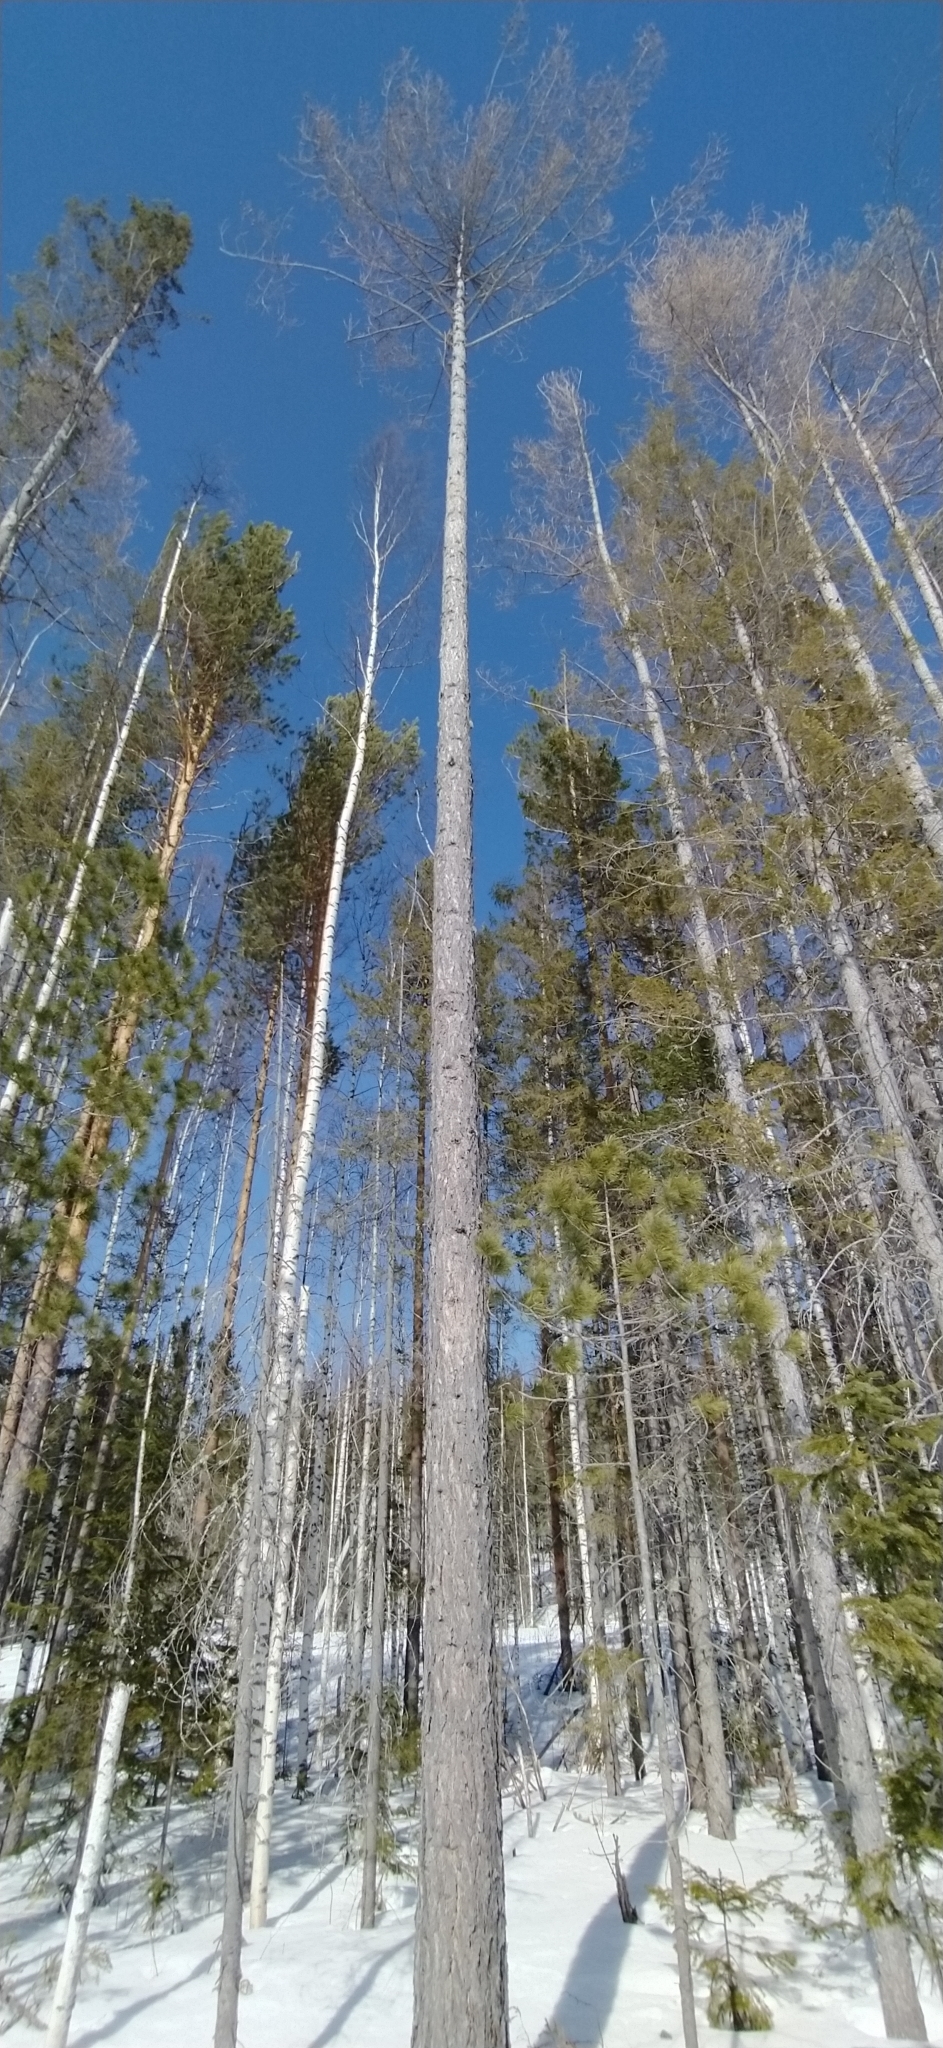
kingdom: Plantae
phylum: Tracheophyta
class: Pinopsida
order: Pinales
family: Pinaceae
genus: Larix
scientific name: Larix sibirica
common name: Siberian larch
